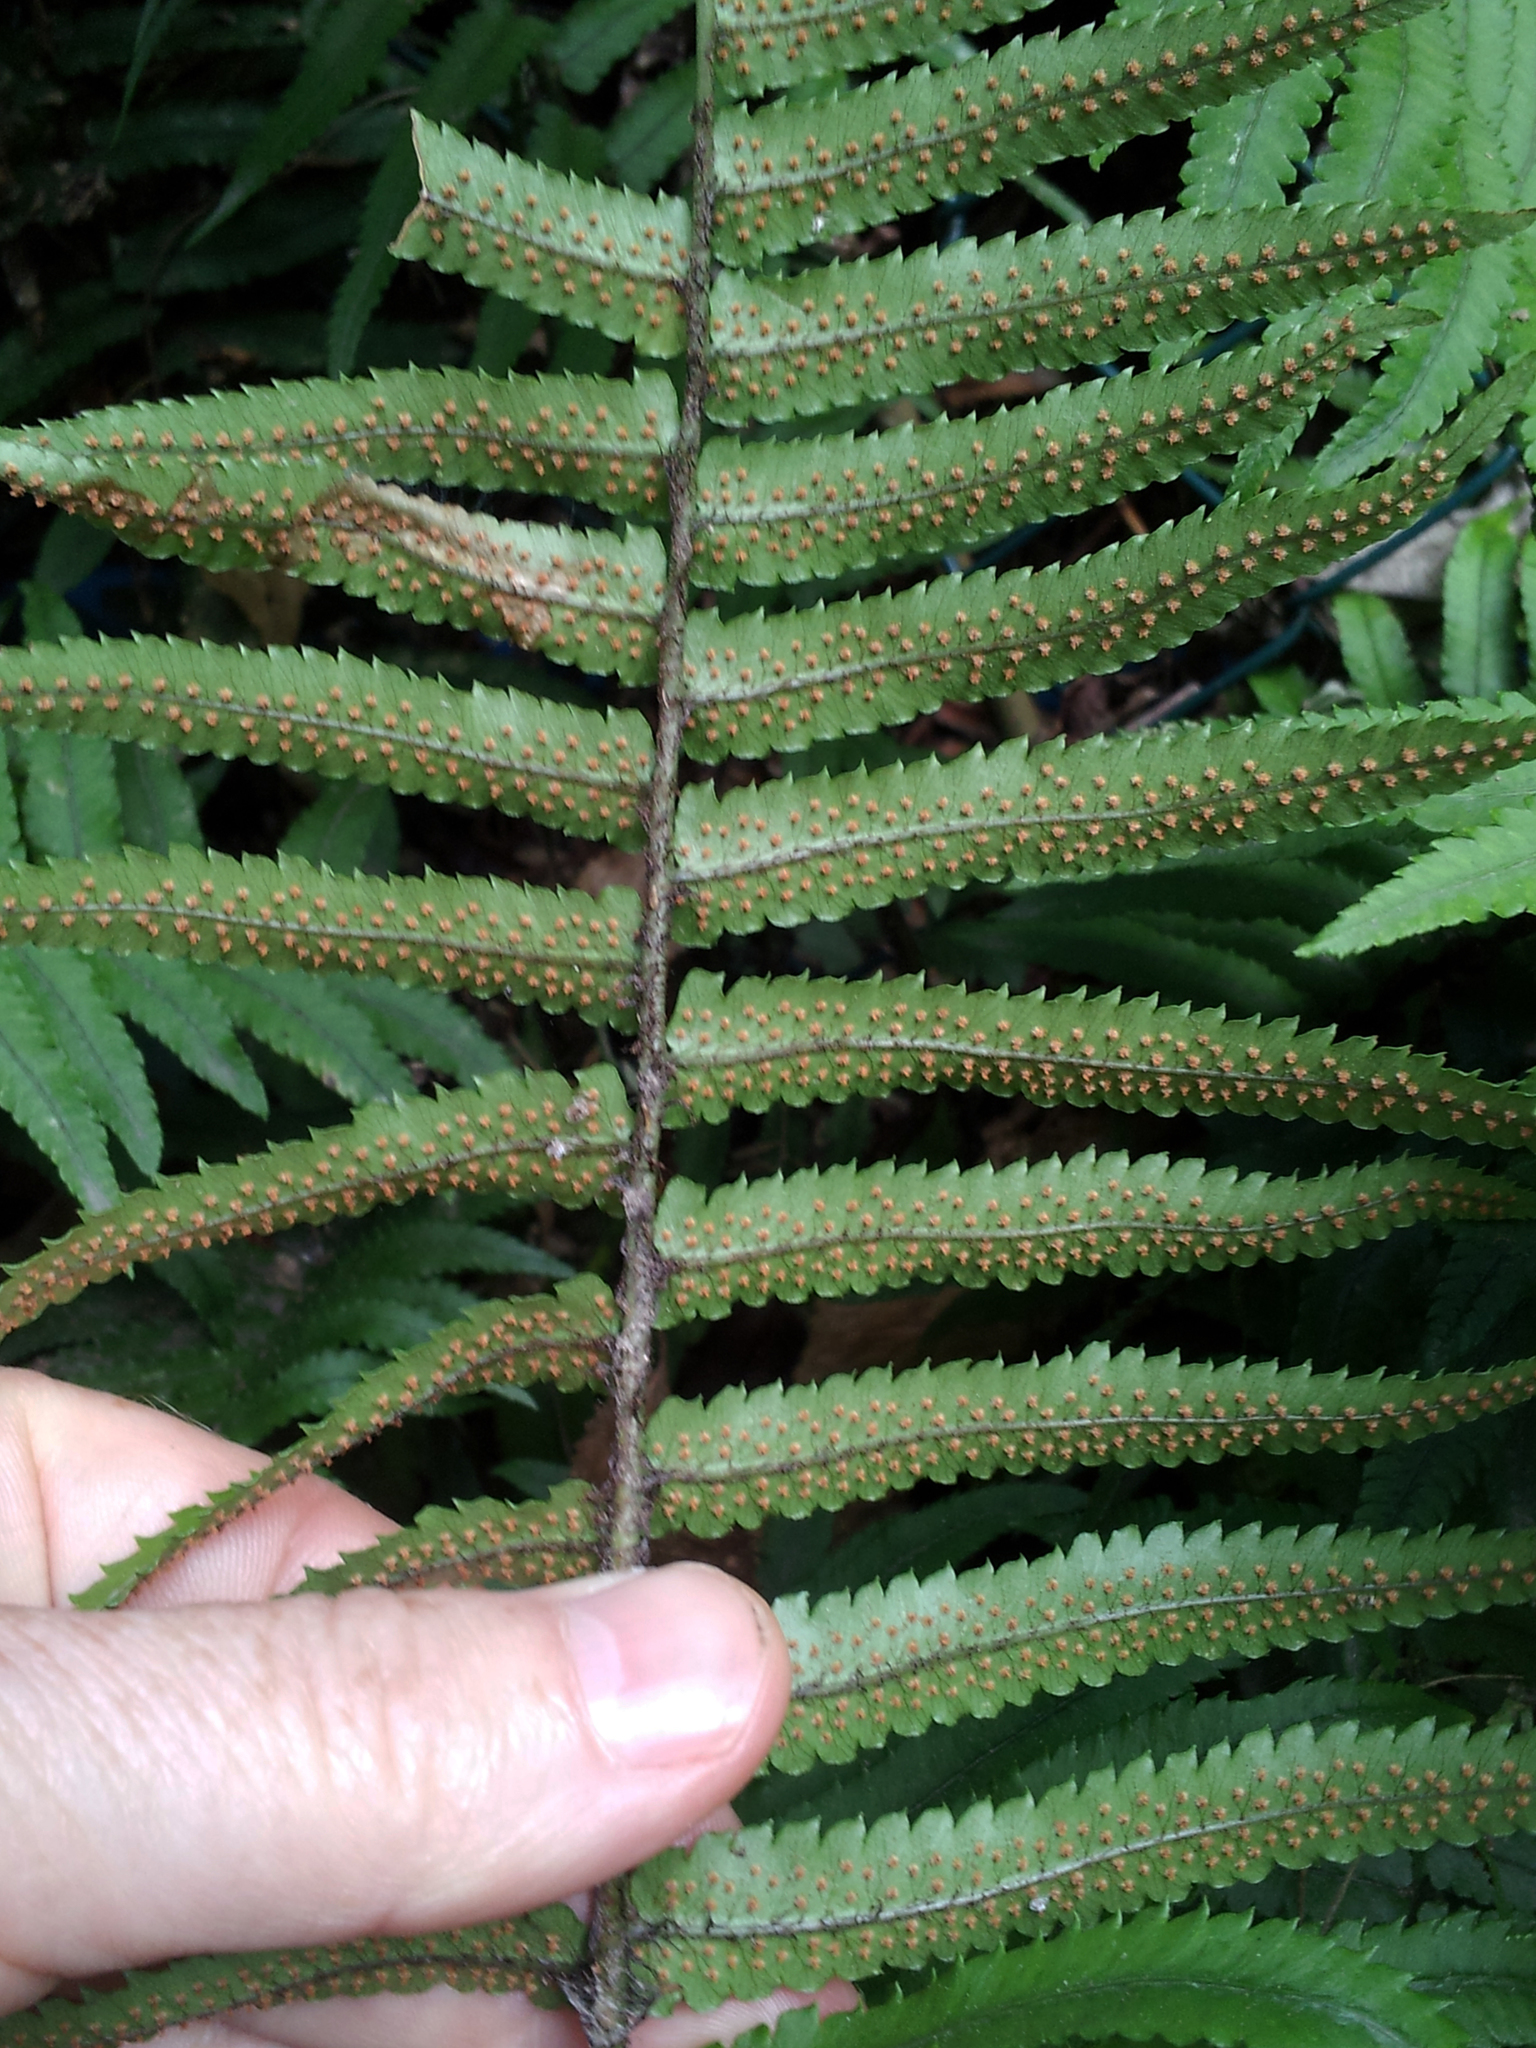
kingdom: Plantae
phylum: Tracheophyta
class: Polypodiopsida
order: Polypodiales
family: Dryopteridaceae
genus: Dryopteris
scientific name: Dryopteris cycadina
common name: Shaggy wood fern
